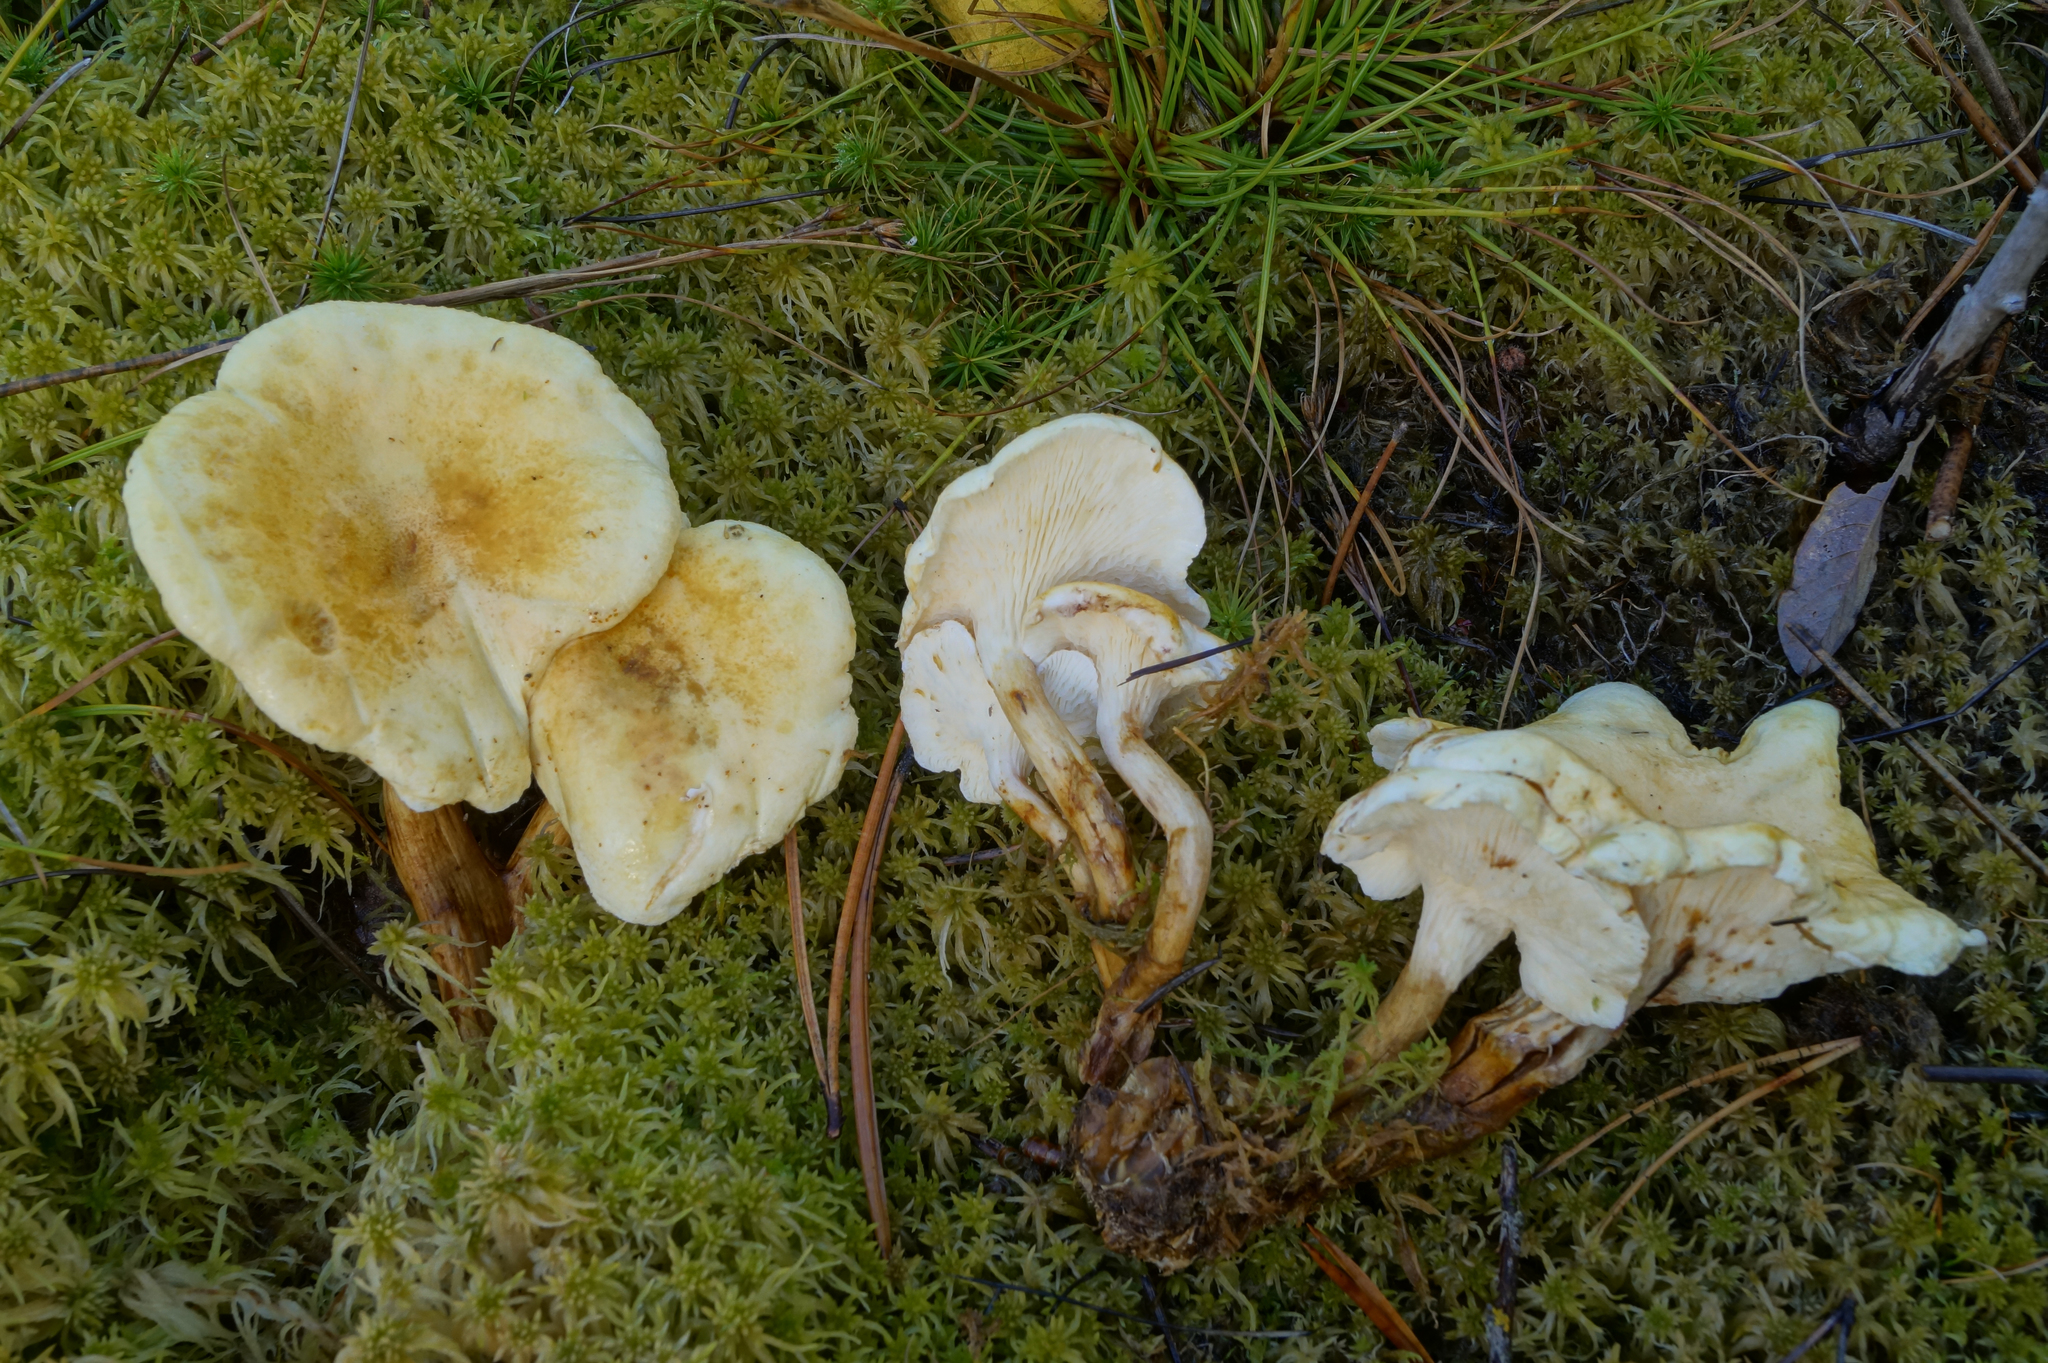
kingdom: Fungi
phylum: Basidiomycota
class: Agaricomycetes
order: Boletales
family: Hygrophoropsidaceae
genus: Hygrophoropsis
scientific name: Hygrophoropsis aurantiaca
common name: False chanterelle
